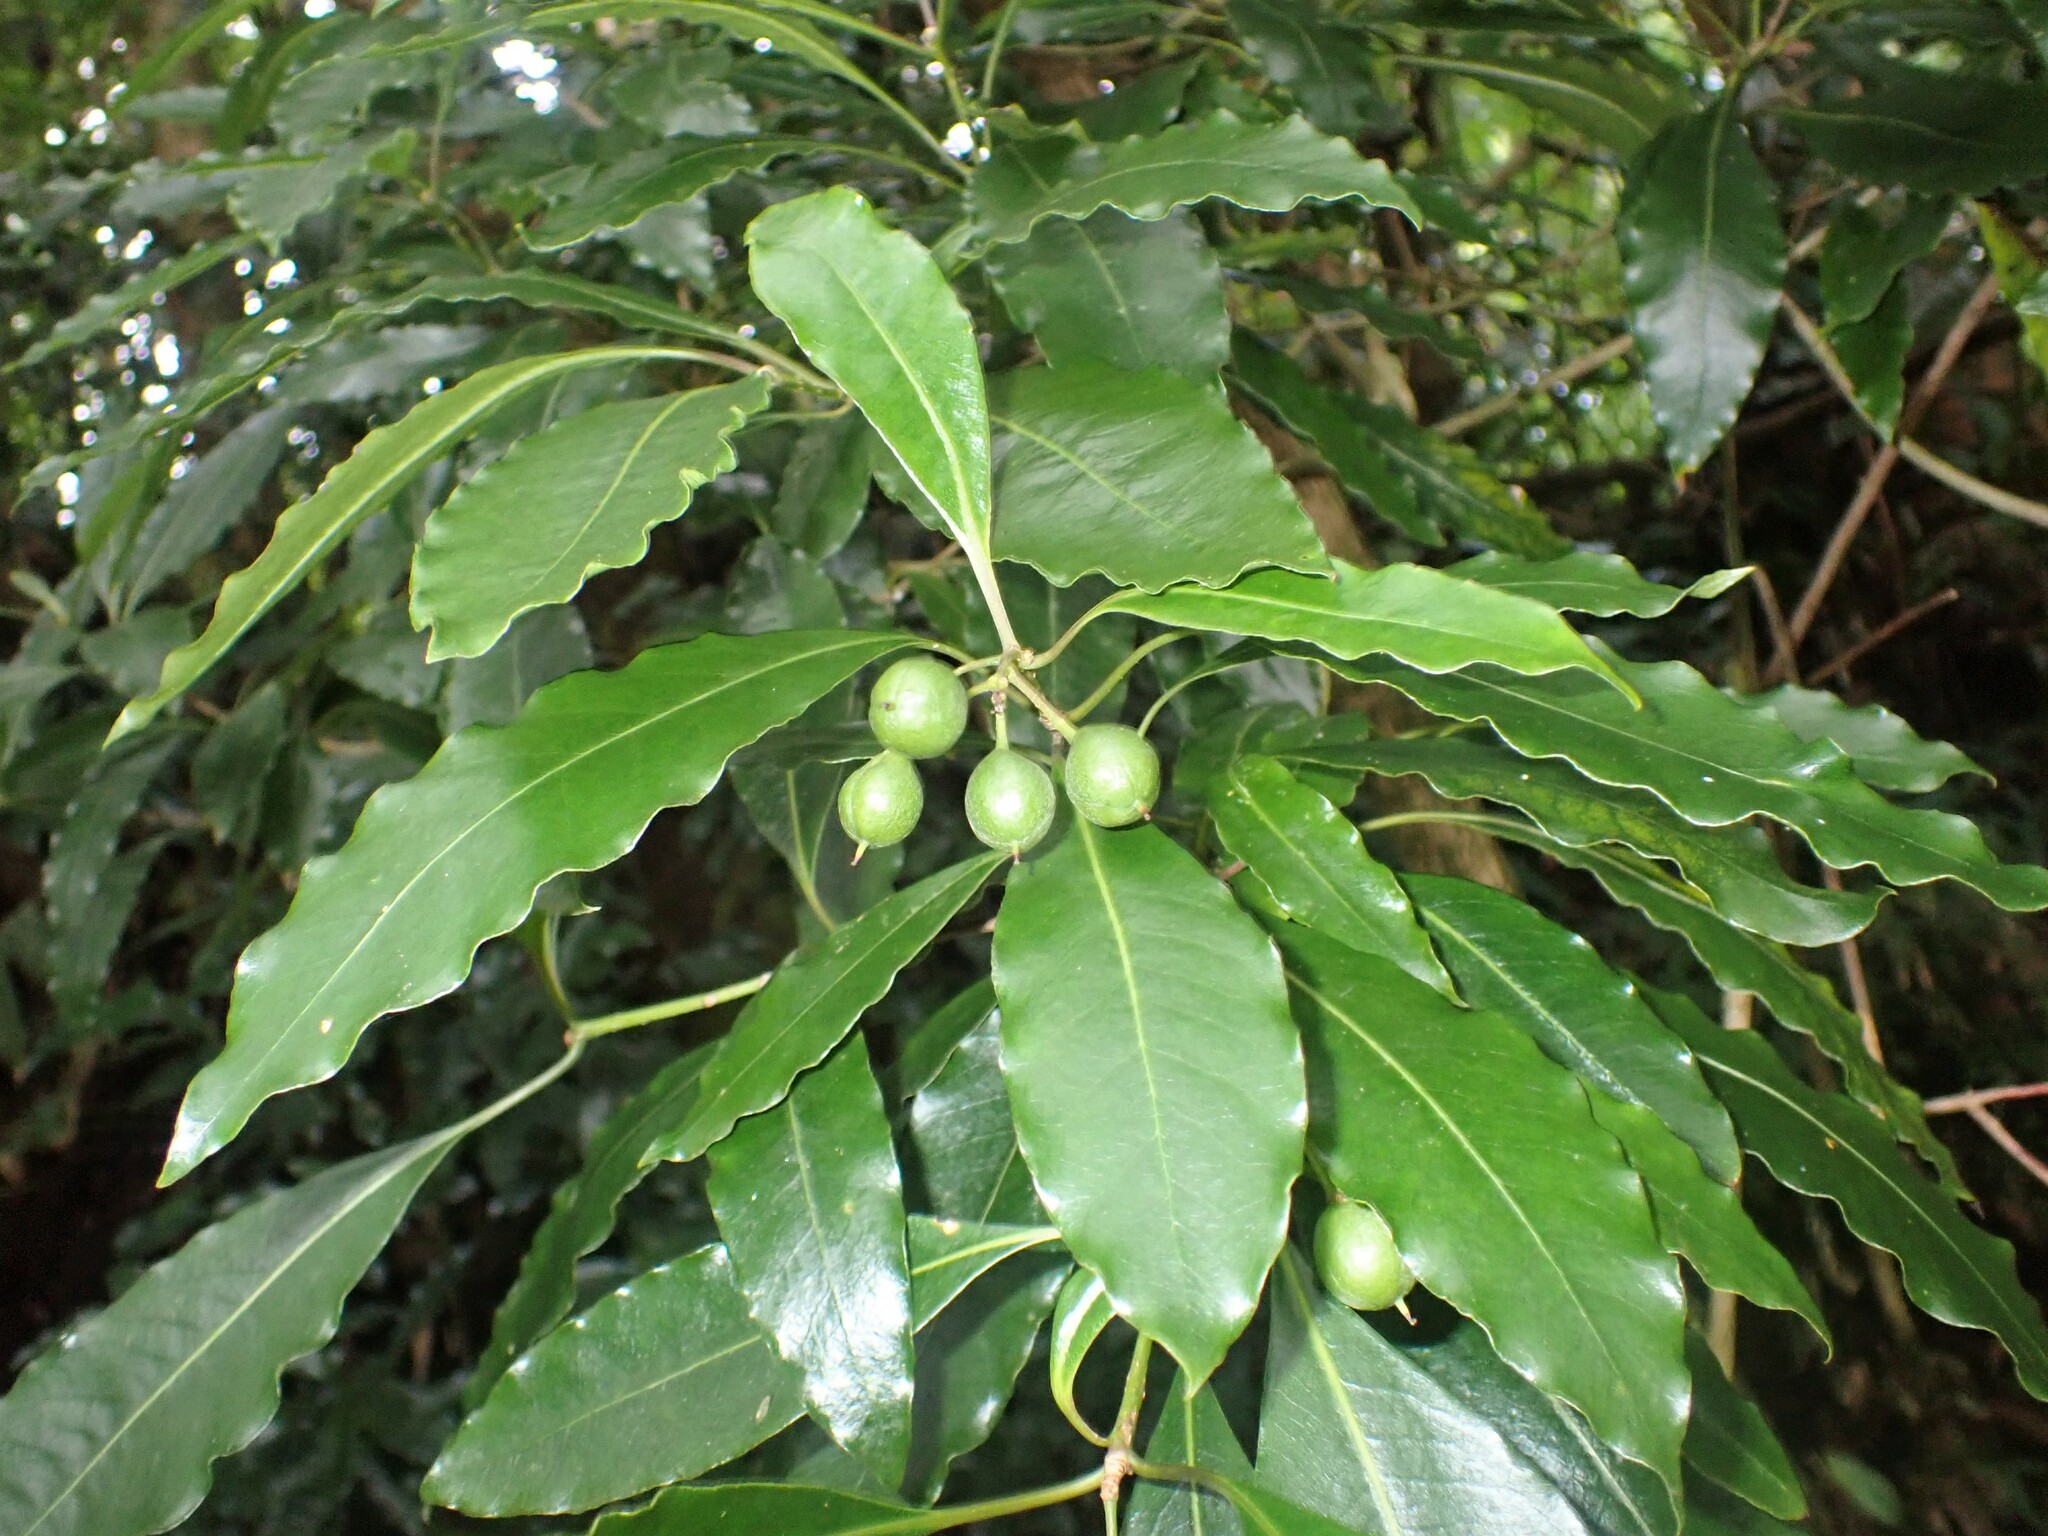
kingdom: Plantae
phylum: Tracheophyta
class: Magnoliopsida
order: Apiales
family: Pittosporaceae
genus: Pittosporum
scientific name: Pittosporum undulatum
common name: Australian cheesewood
